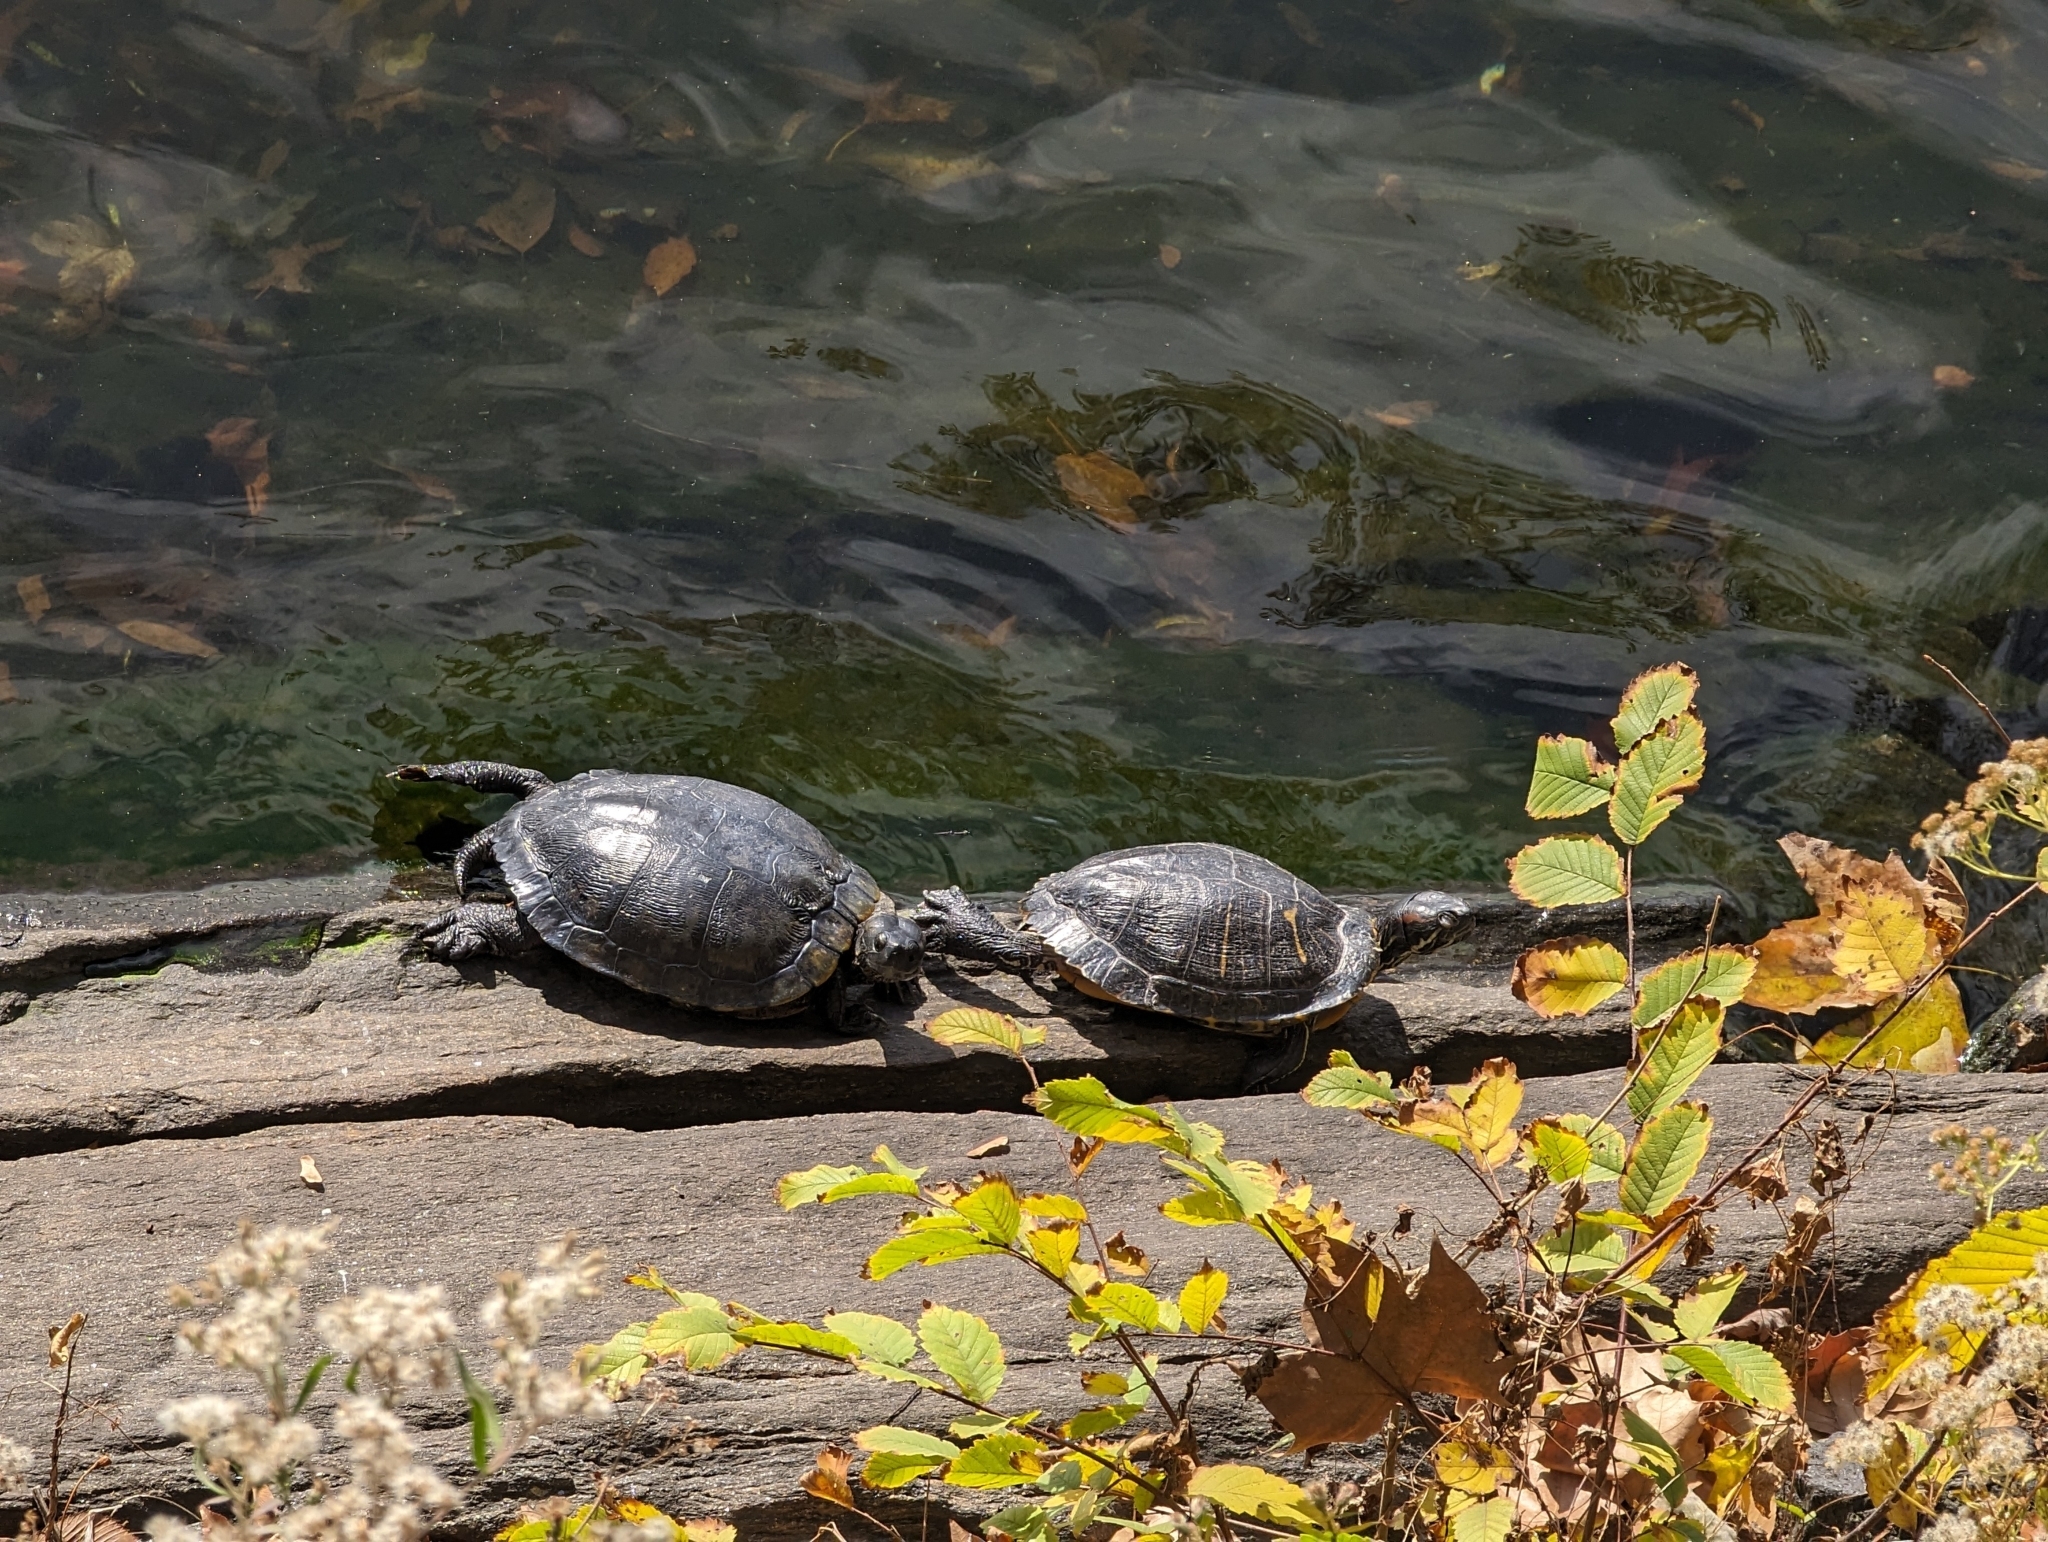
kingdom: Animalia
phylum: Chordata
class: Testudines
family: Emydidae
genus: Trachemys
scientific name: Trachemys scripta
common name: Slider
